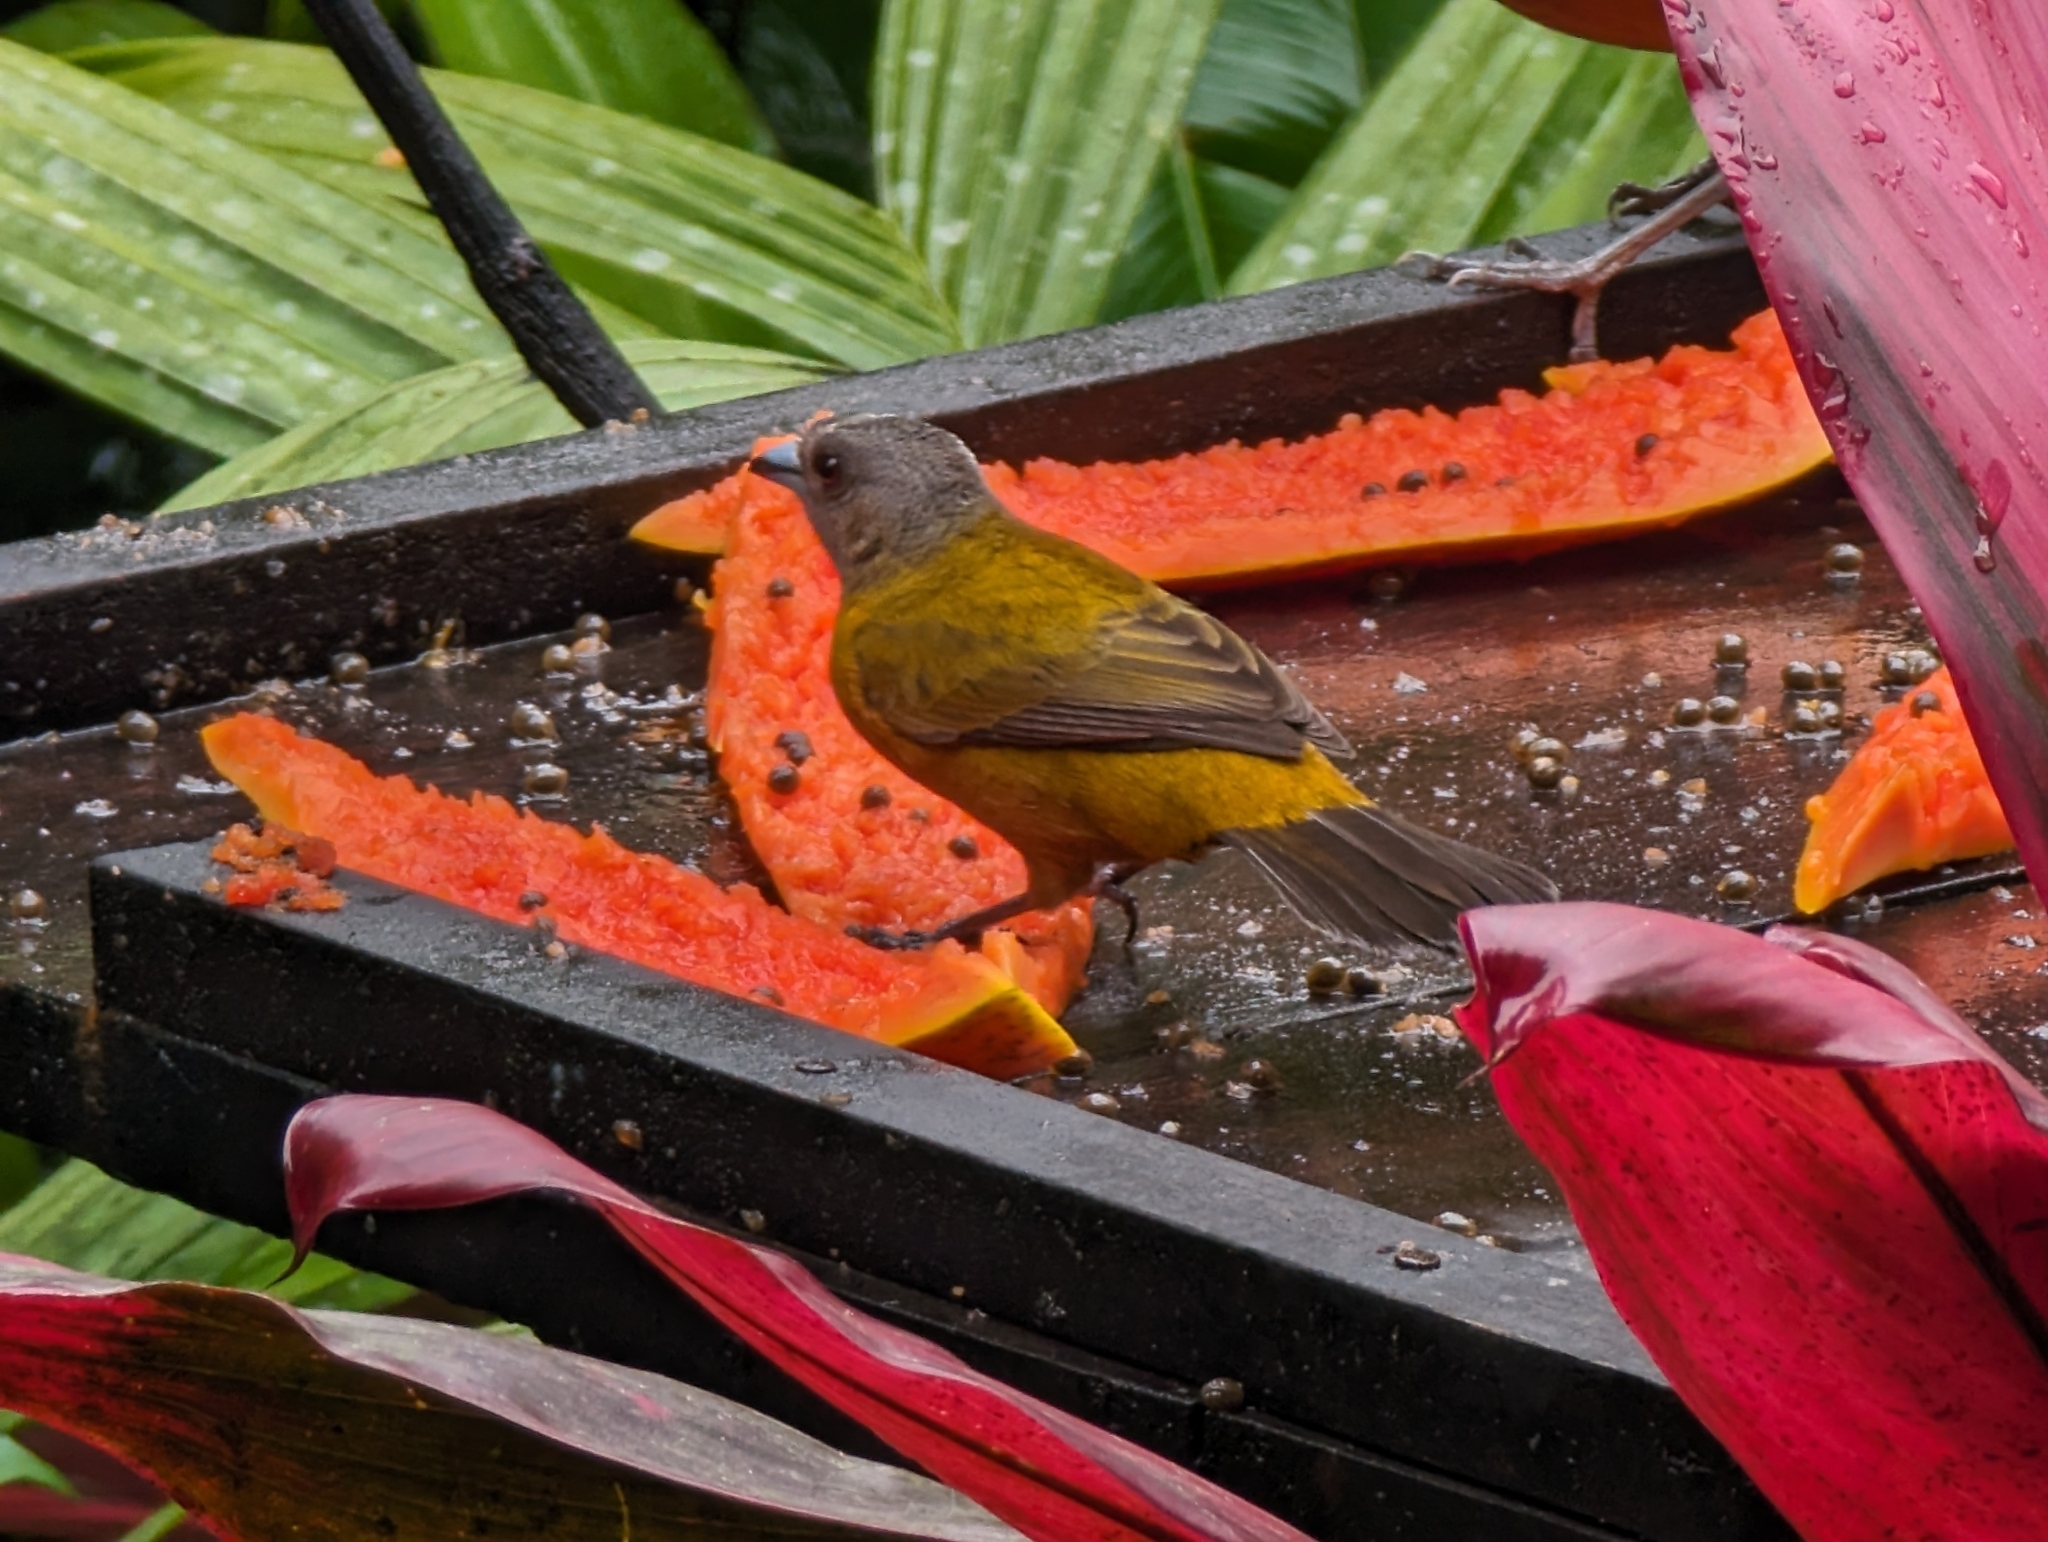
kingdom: Animalia
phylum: Chordata
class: Aves
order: Passeriformes
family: Thraupidae
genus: Ramphocelus
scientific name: Ramphocelus passerinii
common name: Passerini's tanager
